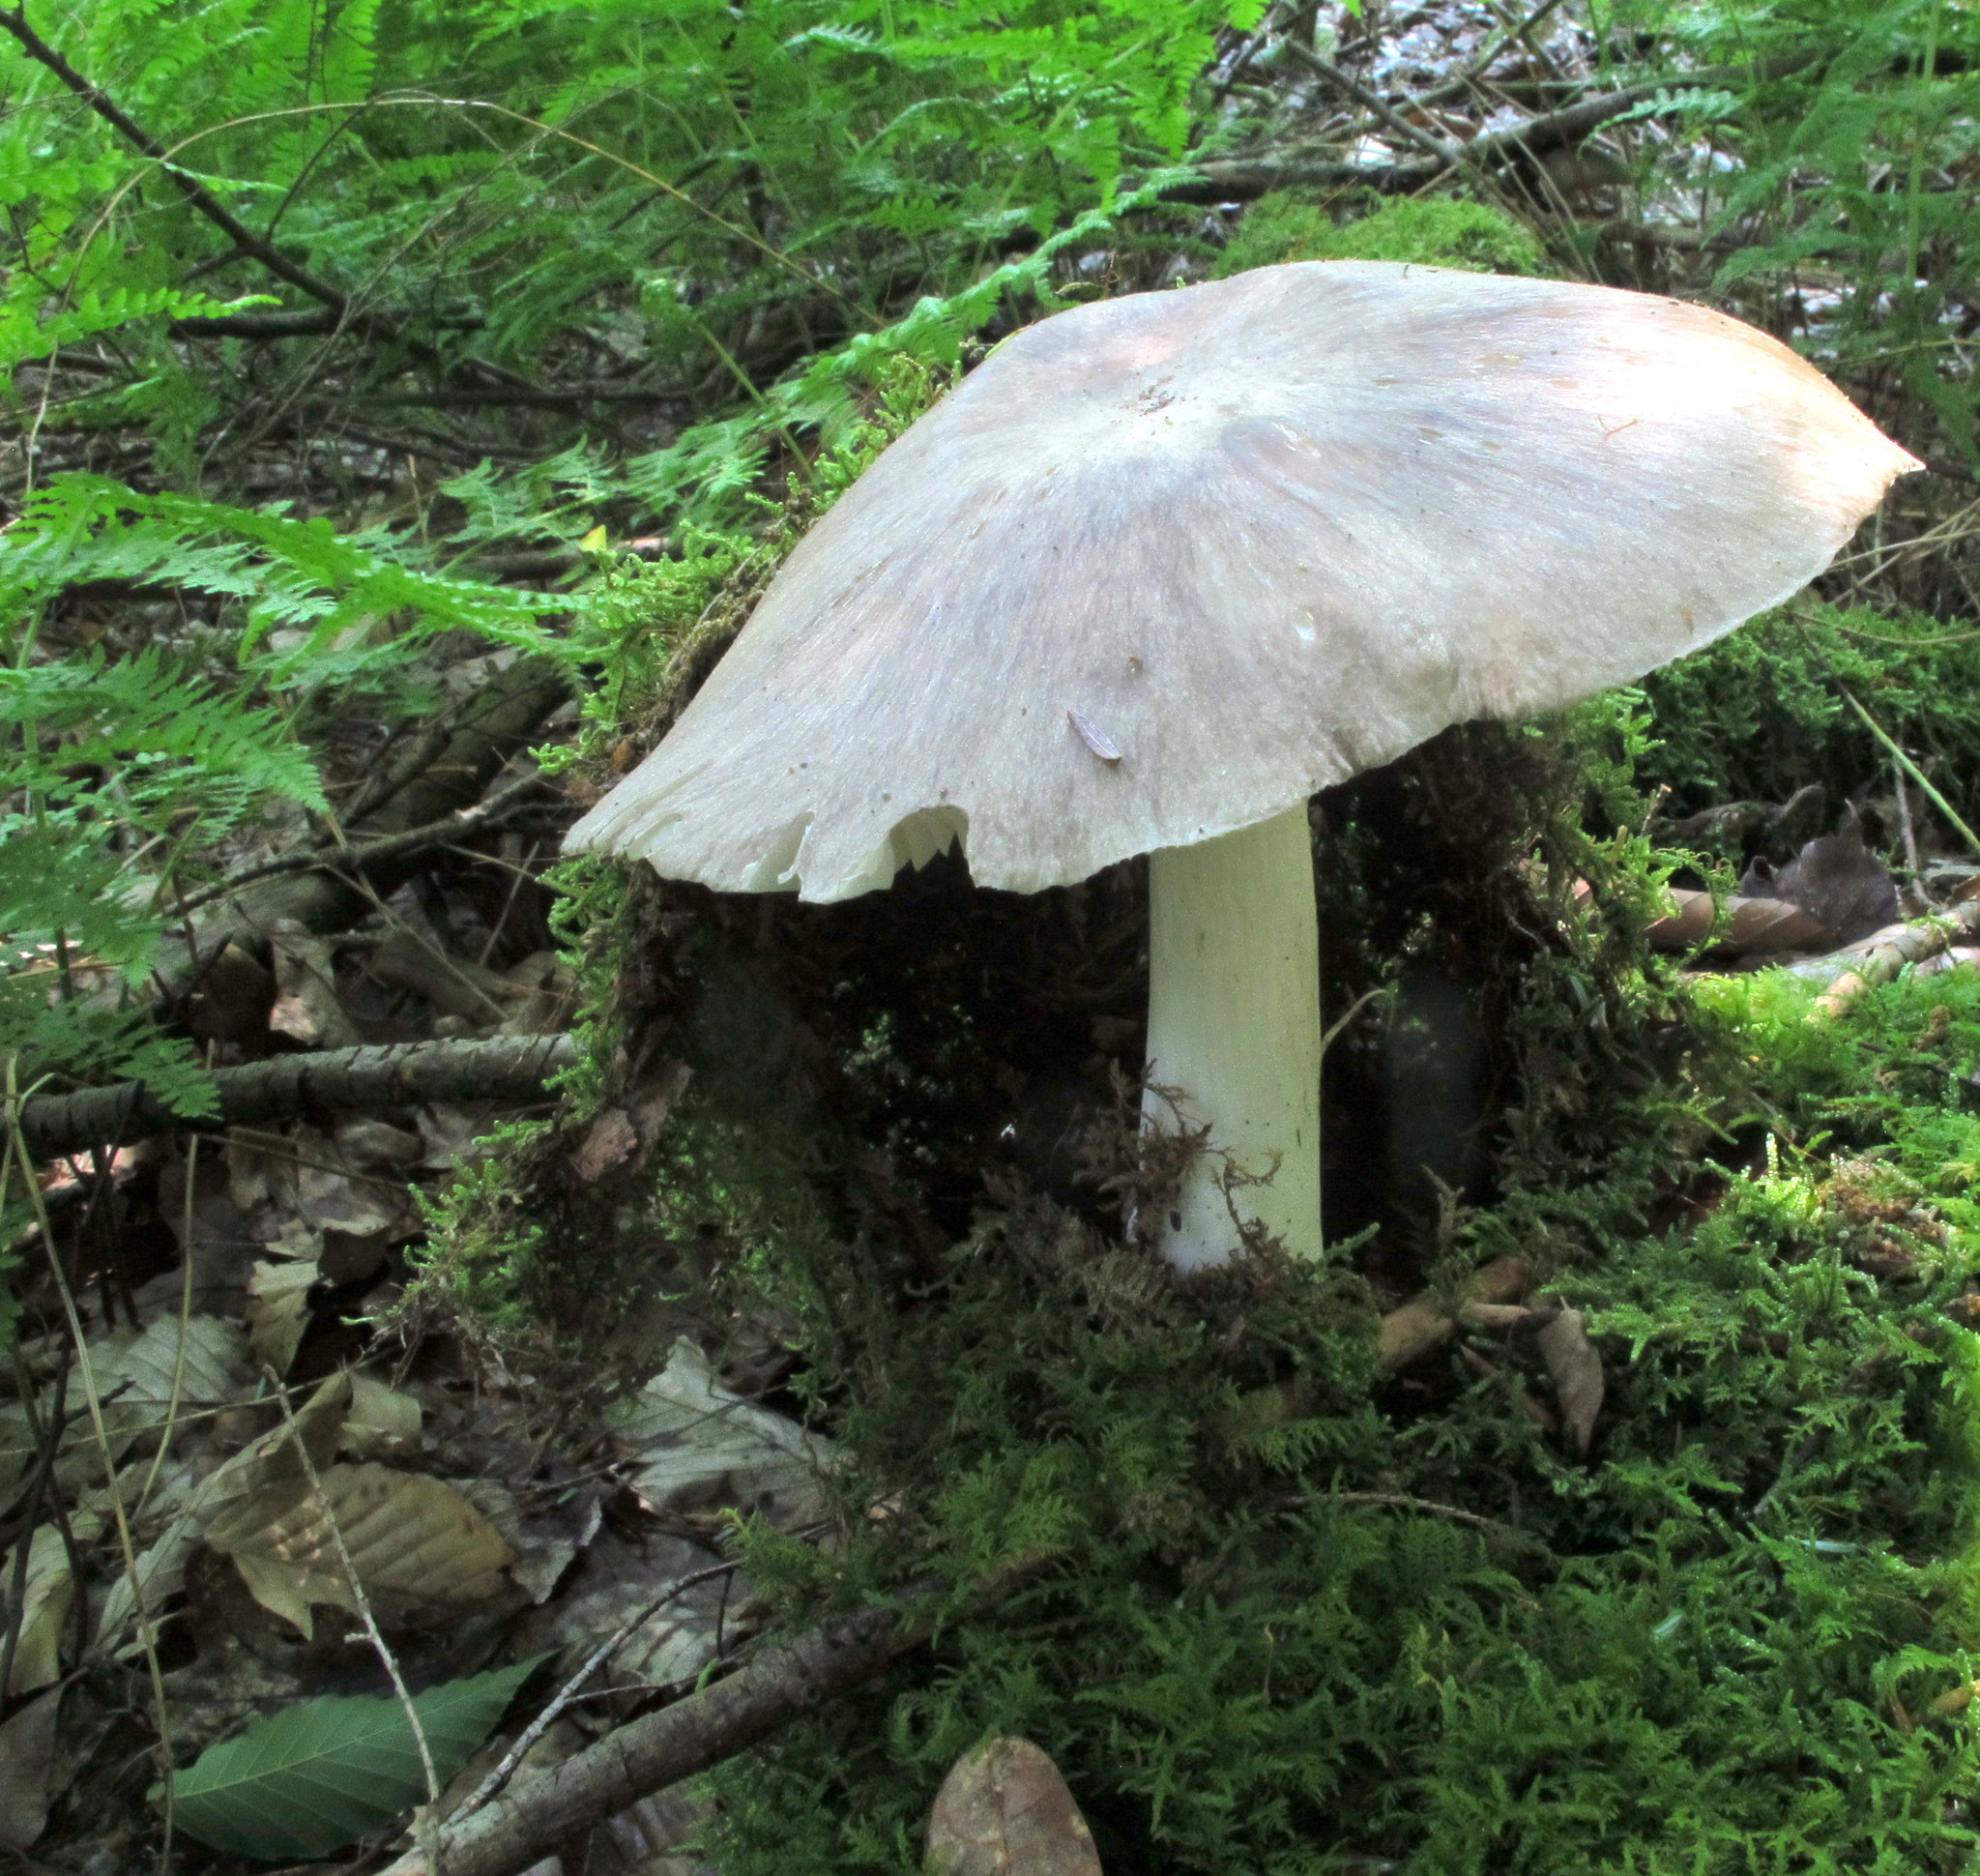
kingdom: Fungi
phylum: Basidiomycota
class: Agaricomycetes
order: Agaricales
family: Tricholomataceae
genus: Megacollybia
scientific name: Megacollybia rodmanii
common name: Eastern american platterful mushroom
